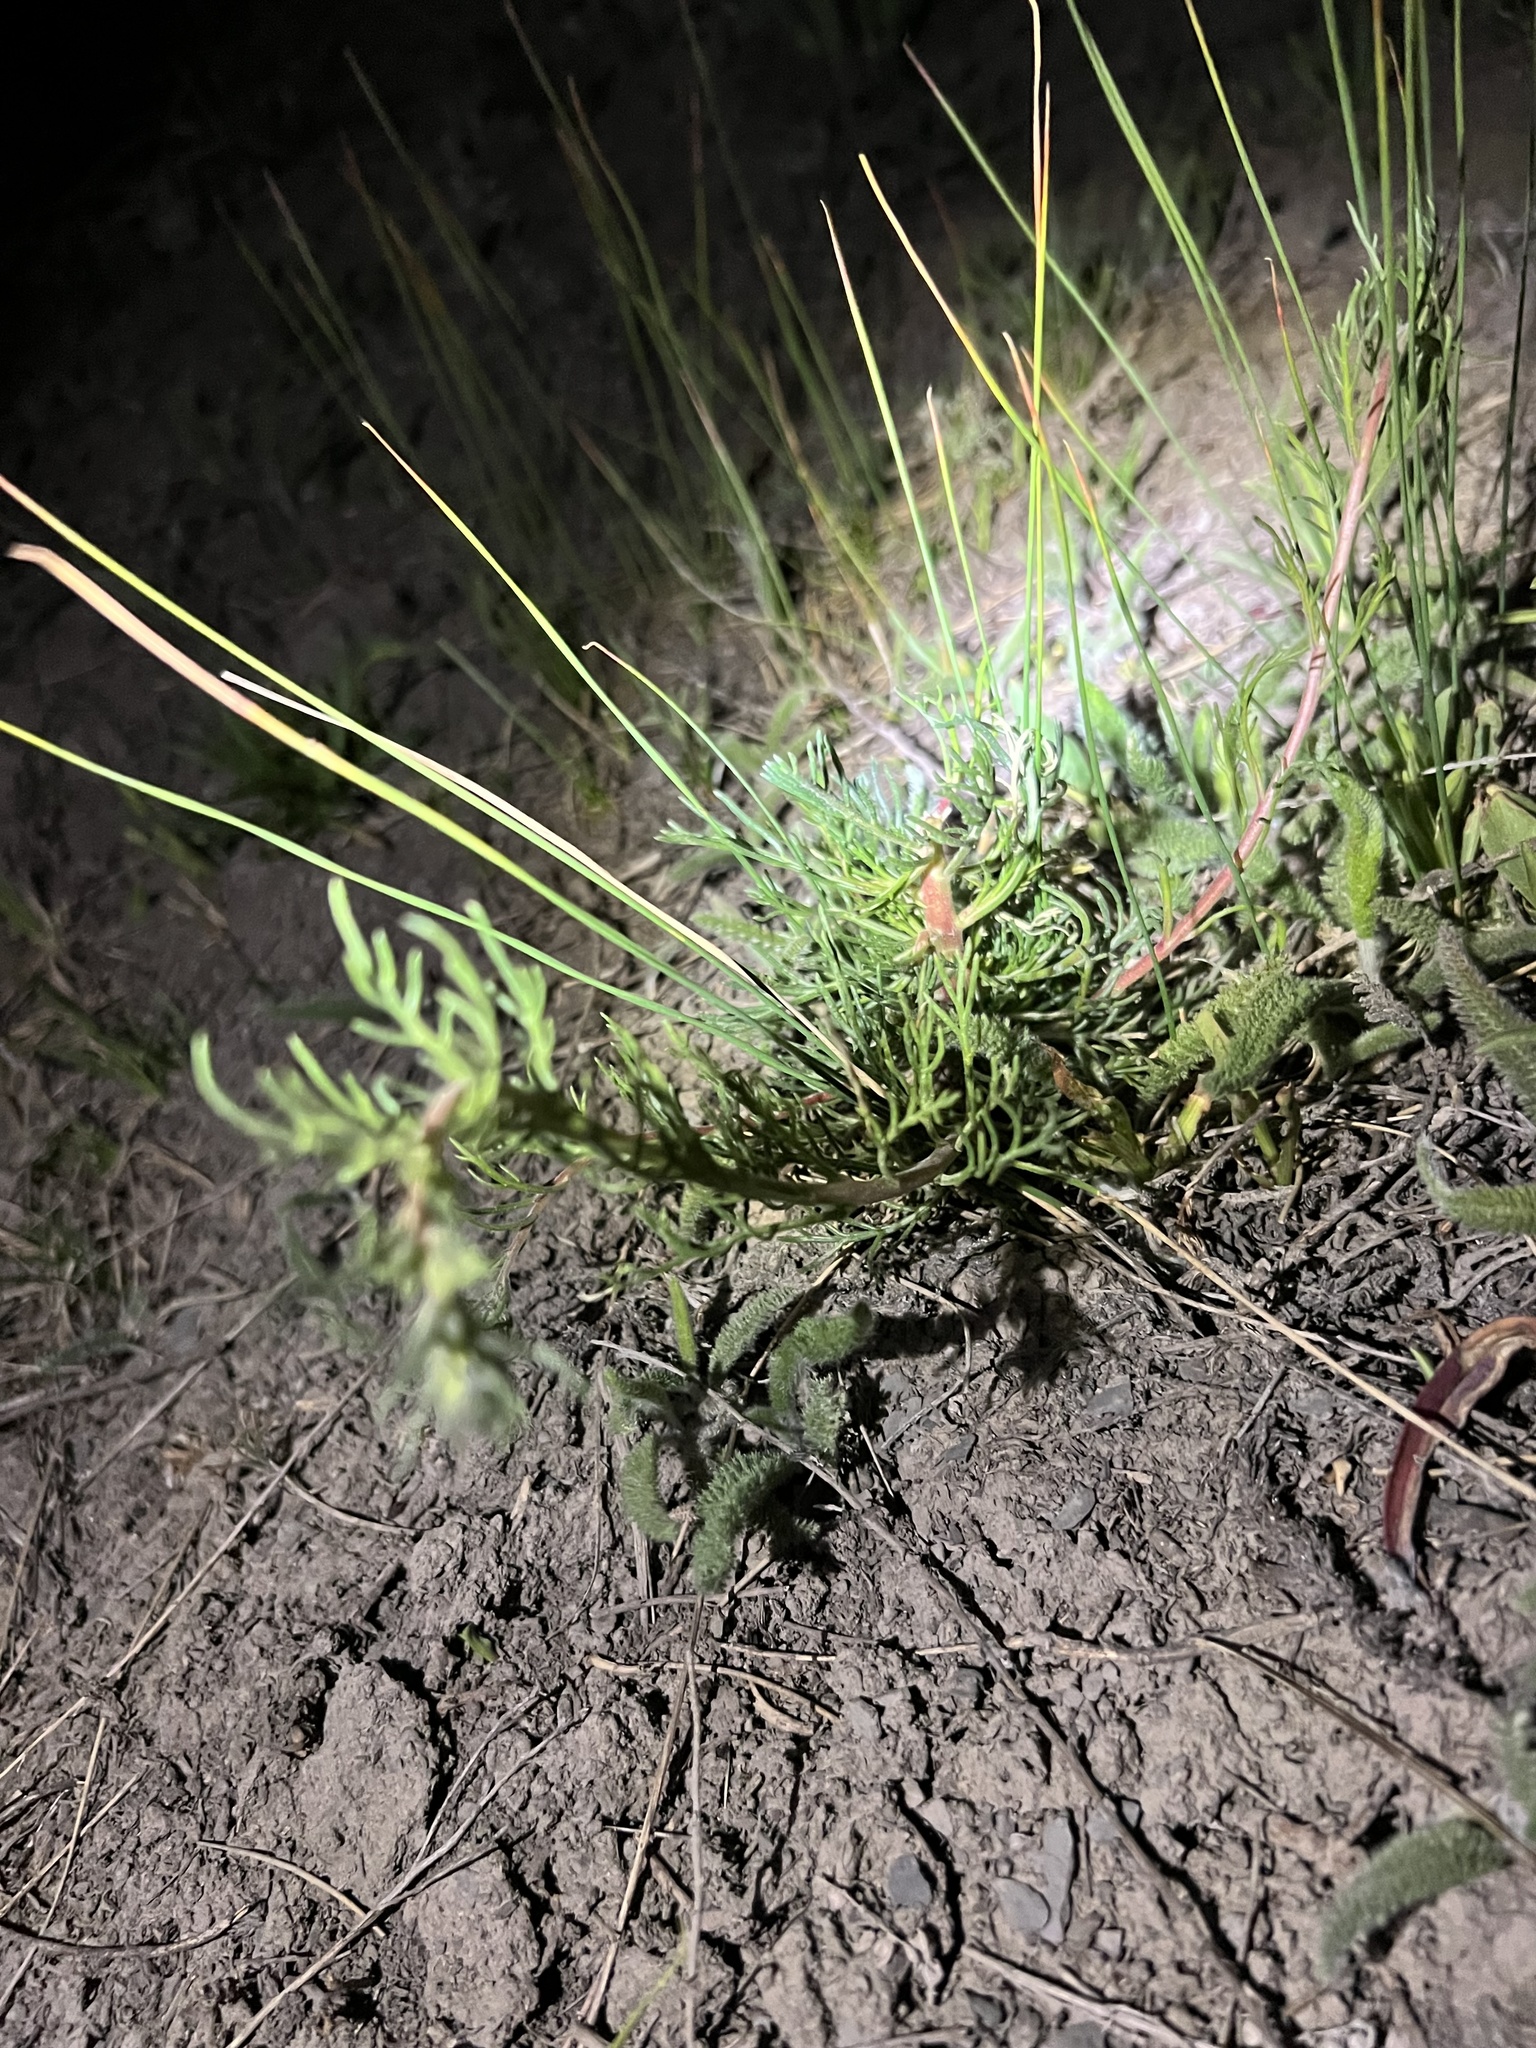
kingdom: Plantae
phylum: Tracheophyta
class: Magnoliopsida
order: Ericales
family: Polemoniaceae
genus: Ipomopsis
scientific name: Ipomopsis polyantha
